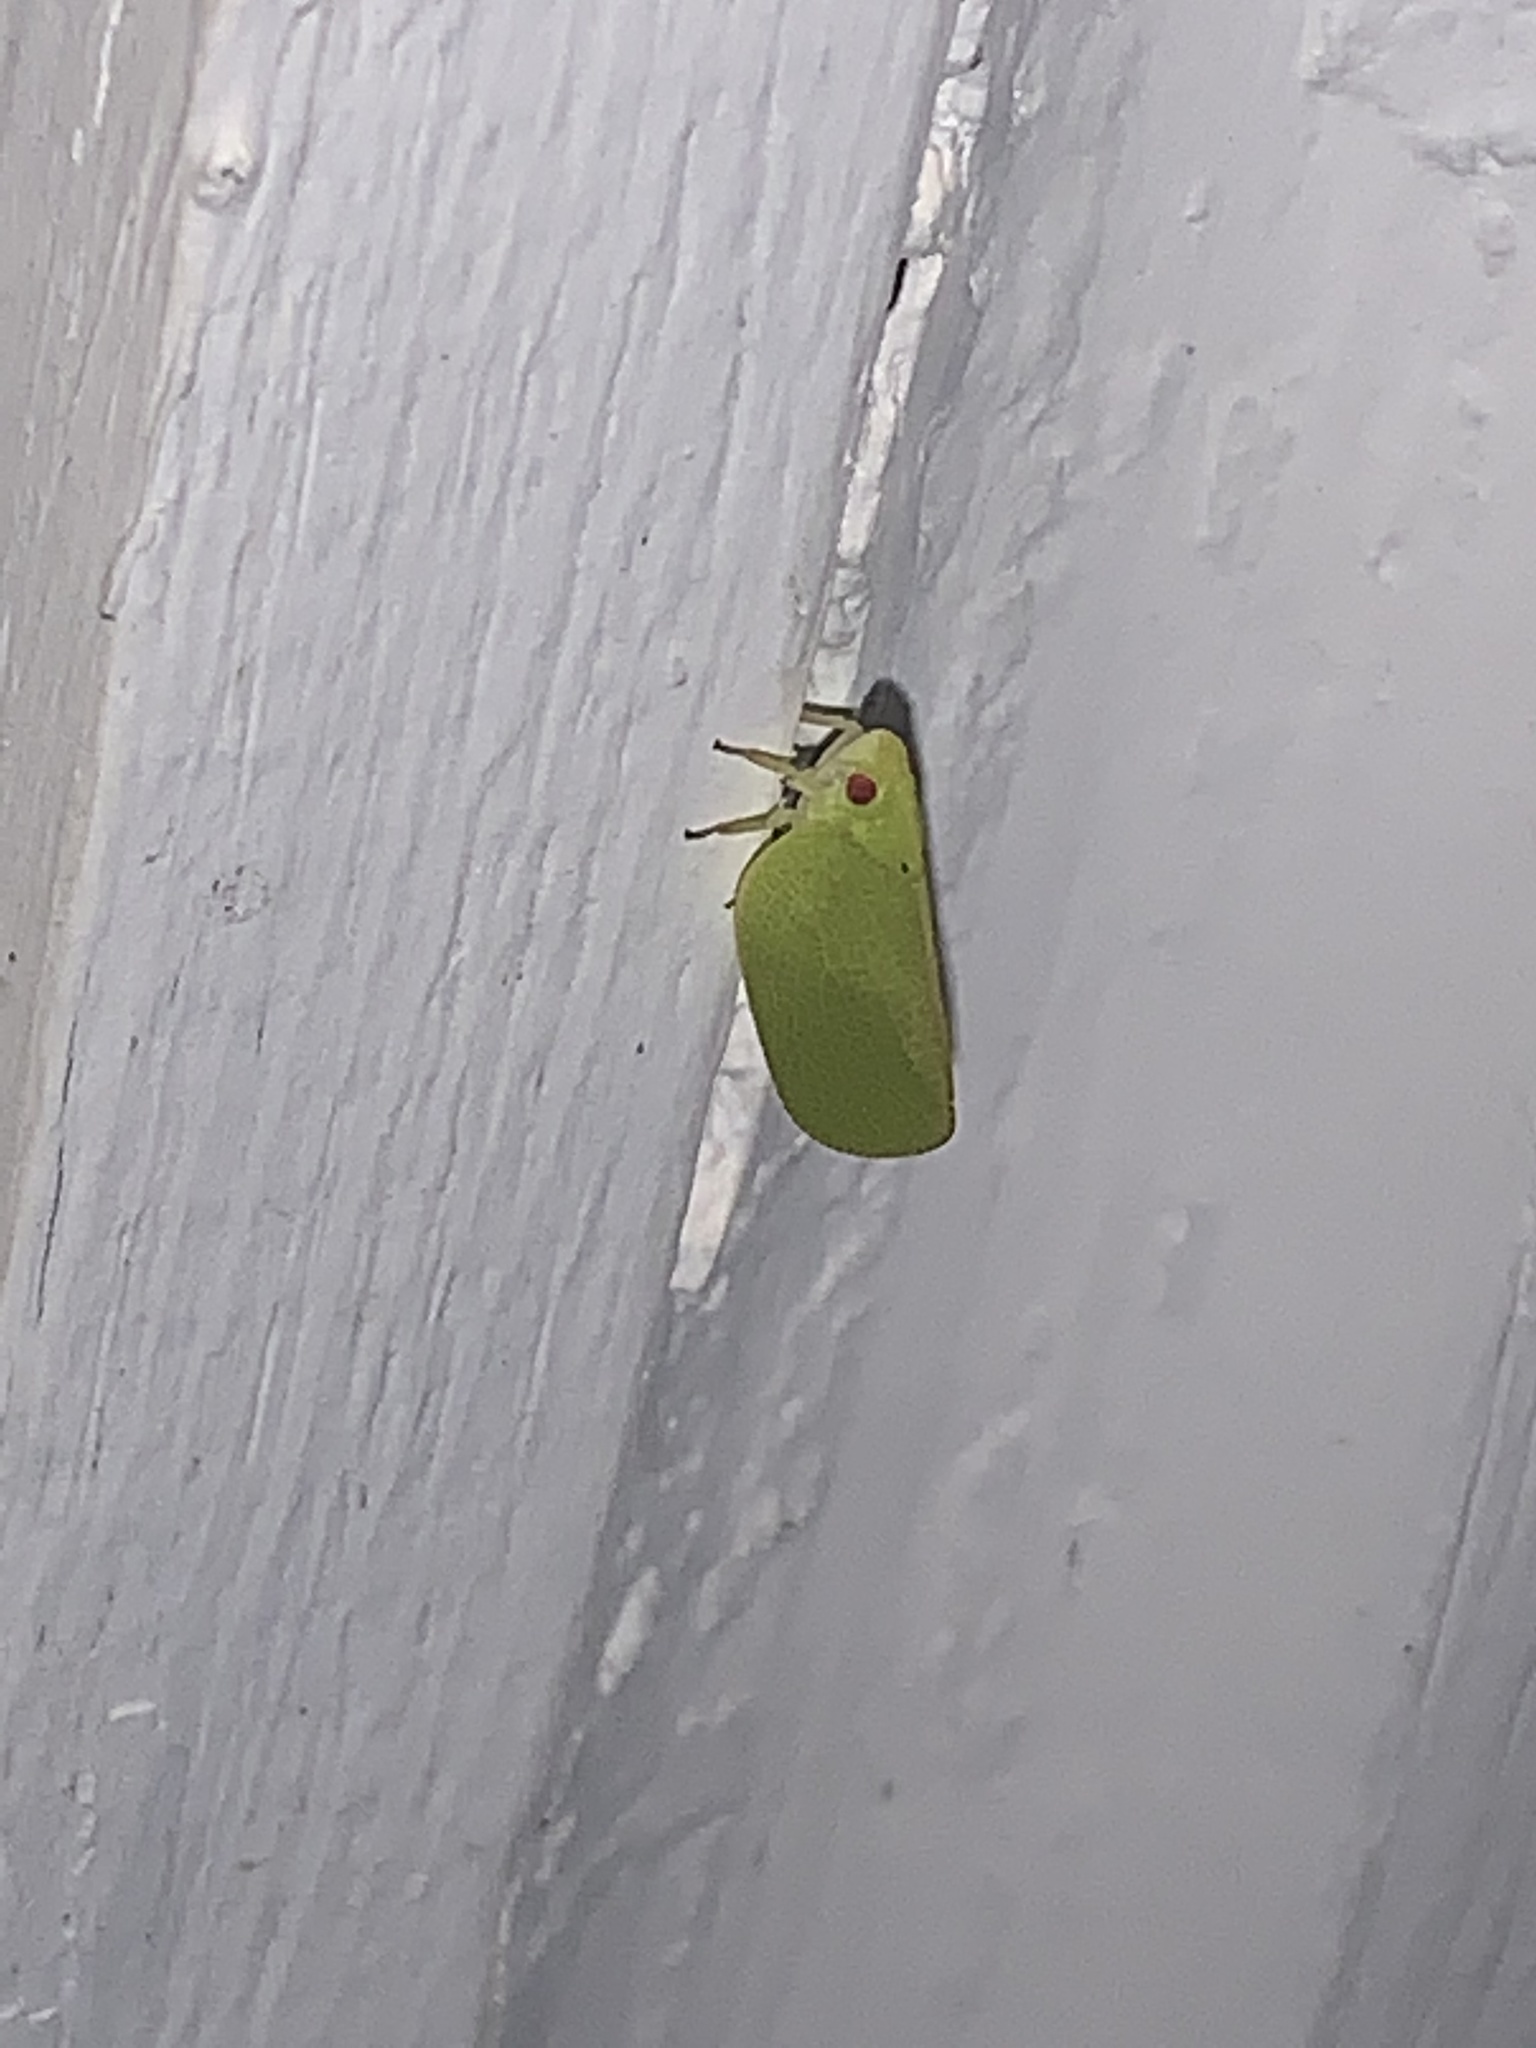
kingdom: Animalia
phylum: Arthropoda
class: Insecta
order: Hemiptera
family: Acanaloniidae
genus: Acanalonia
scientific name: Acanalonia conica
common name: Green cone-headed planthopper
